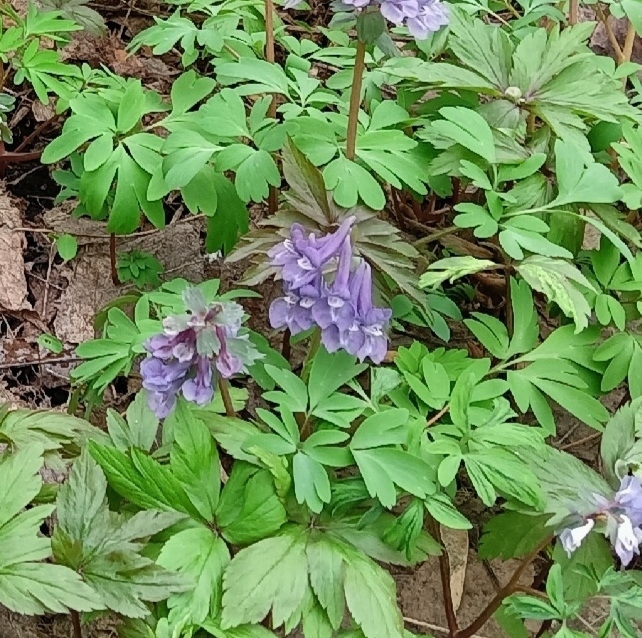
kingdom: Plantae
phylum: Tracheophyta
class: Magnoliopsida
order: Ranunculales
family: Papaveraceae
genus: Corydalis
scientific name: Corydalis solida
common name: Bird-in-a-bush
